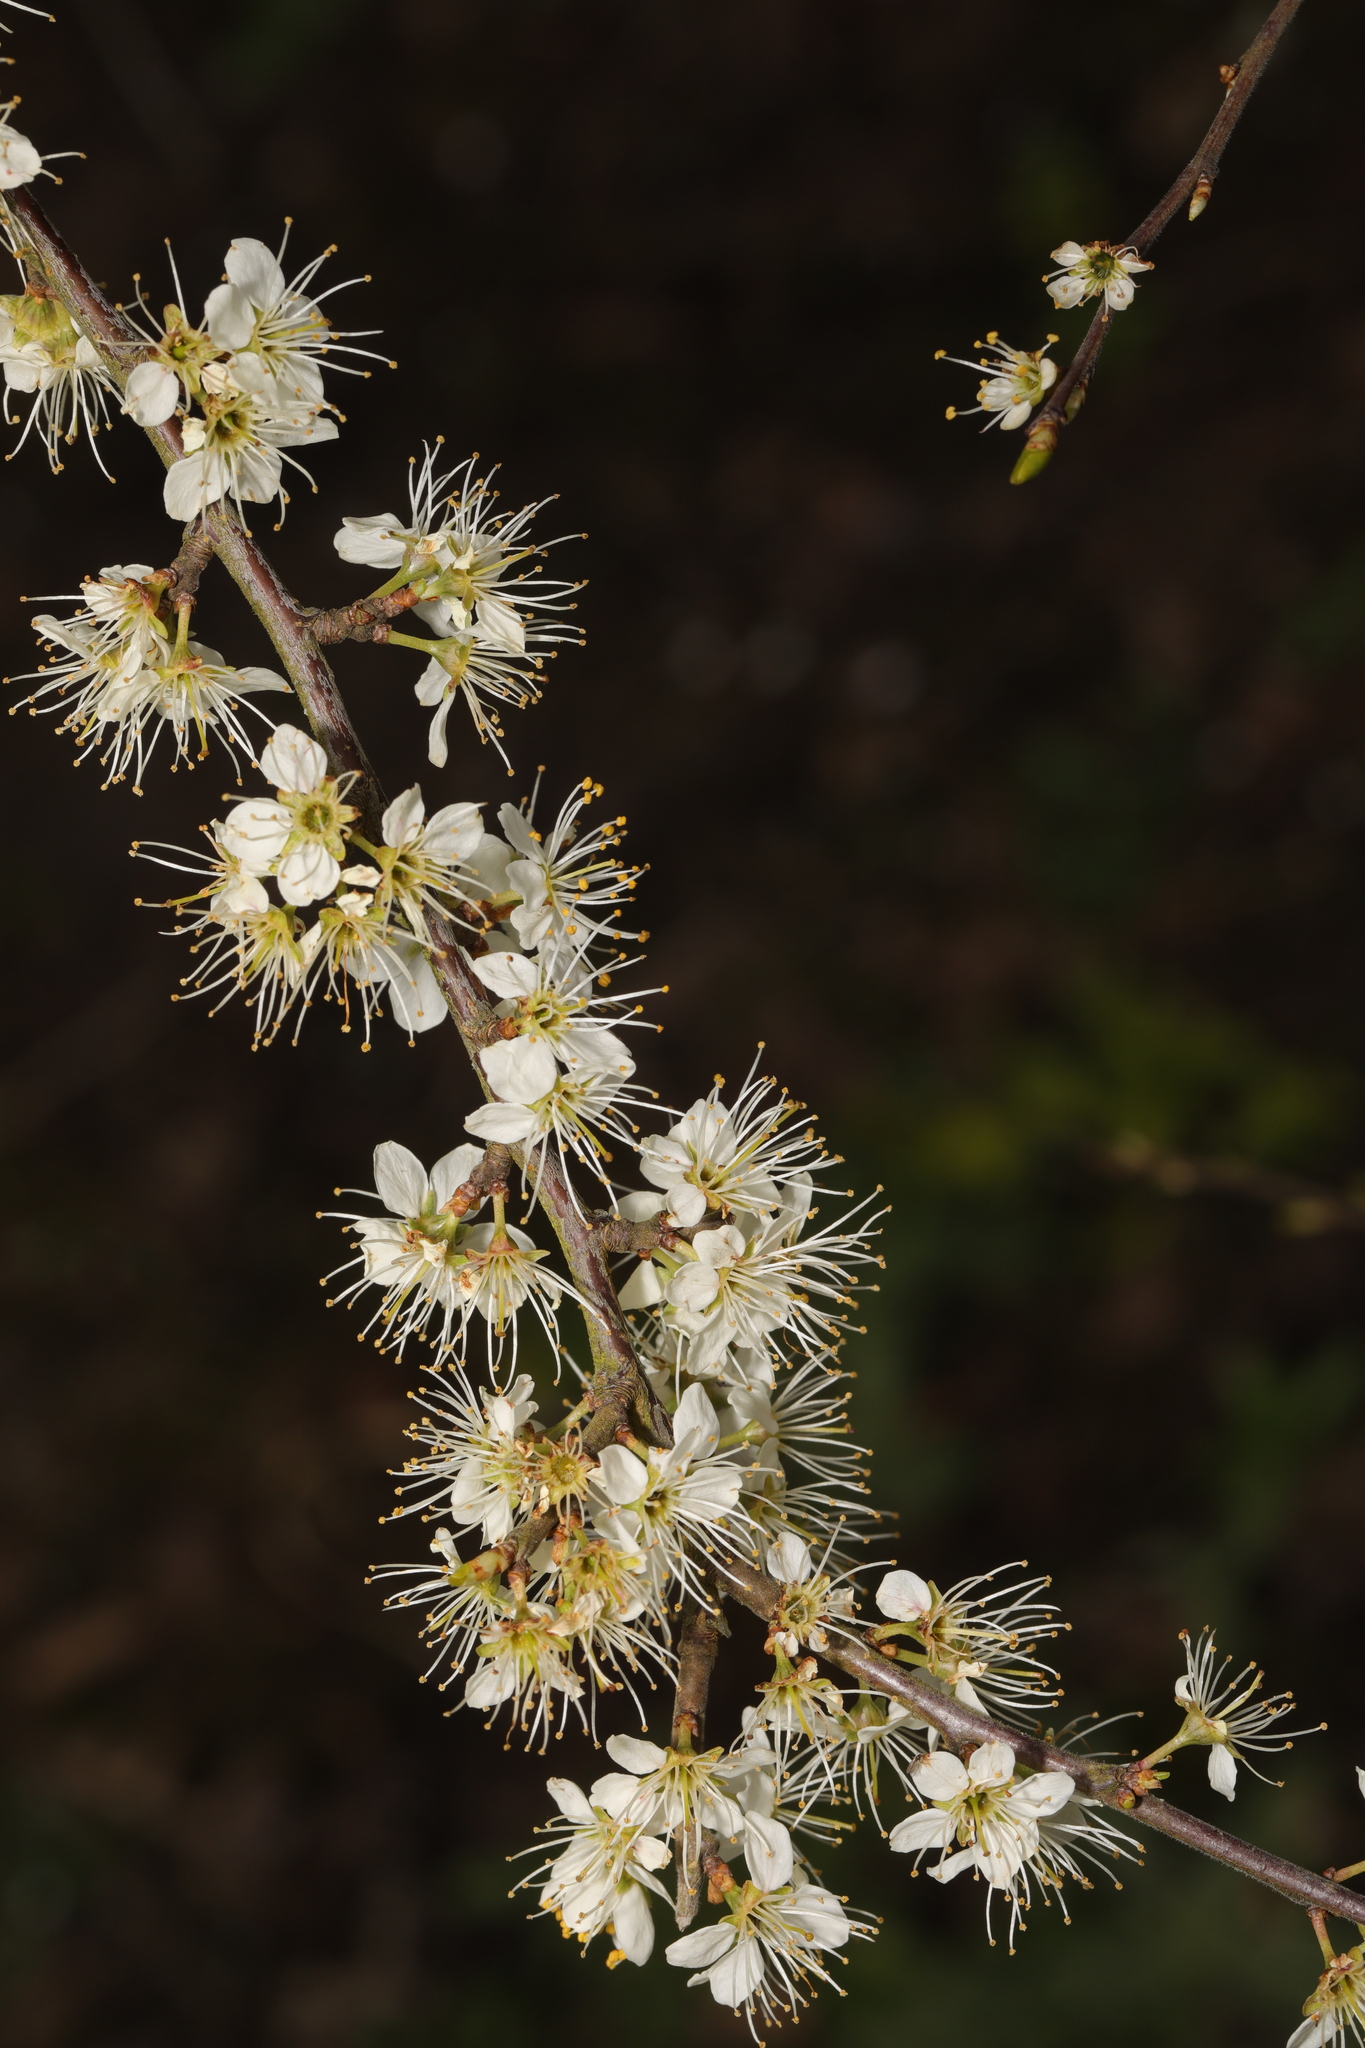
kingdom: Plantae
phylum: Tracheophyta
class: Magnoliopsida
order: Rosales
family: Rosaceae
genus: Prunus
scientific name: Prunus spinosa
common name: Blackthorn
